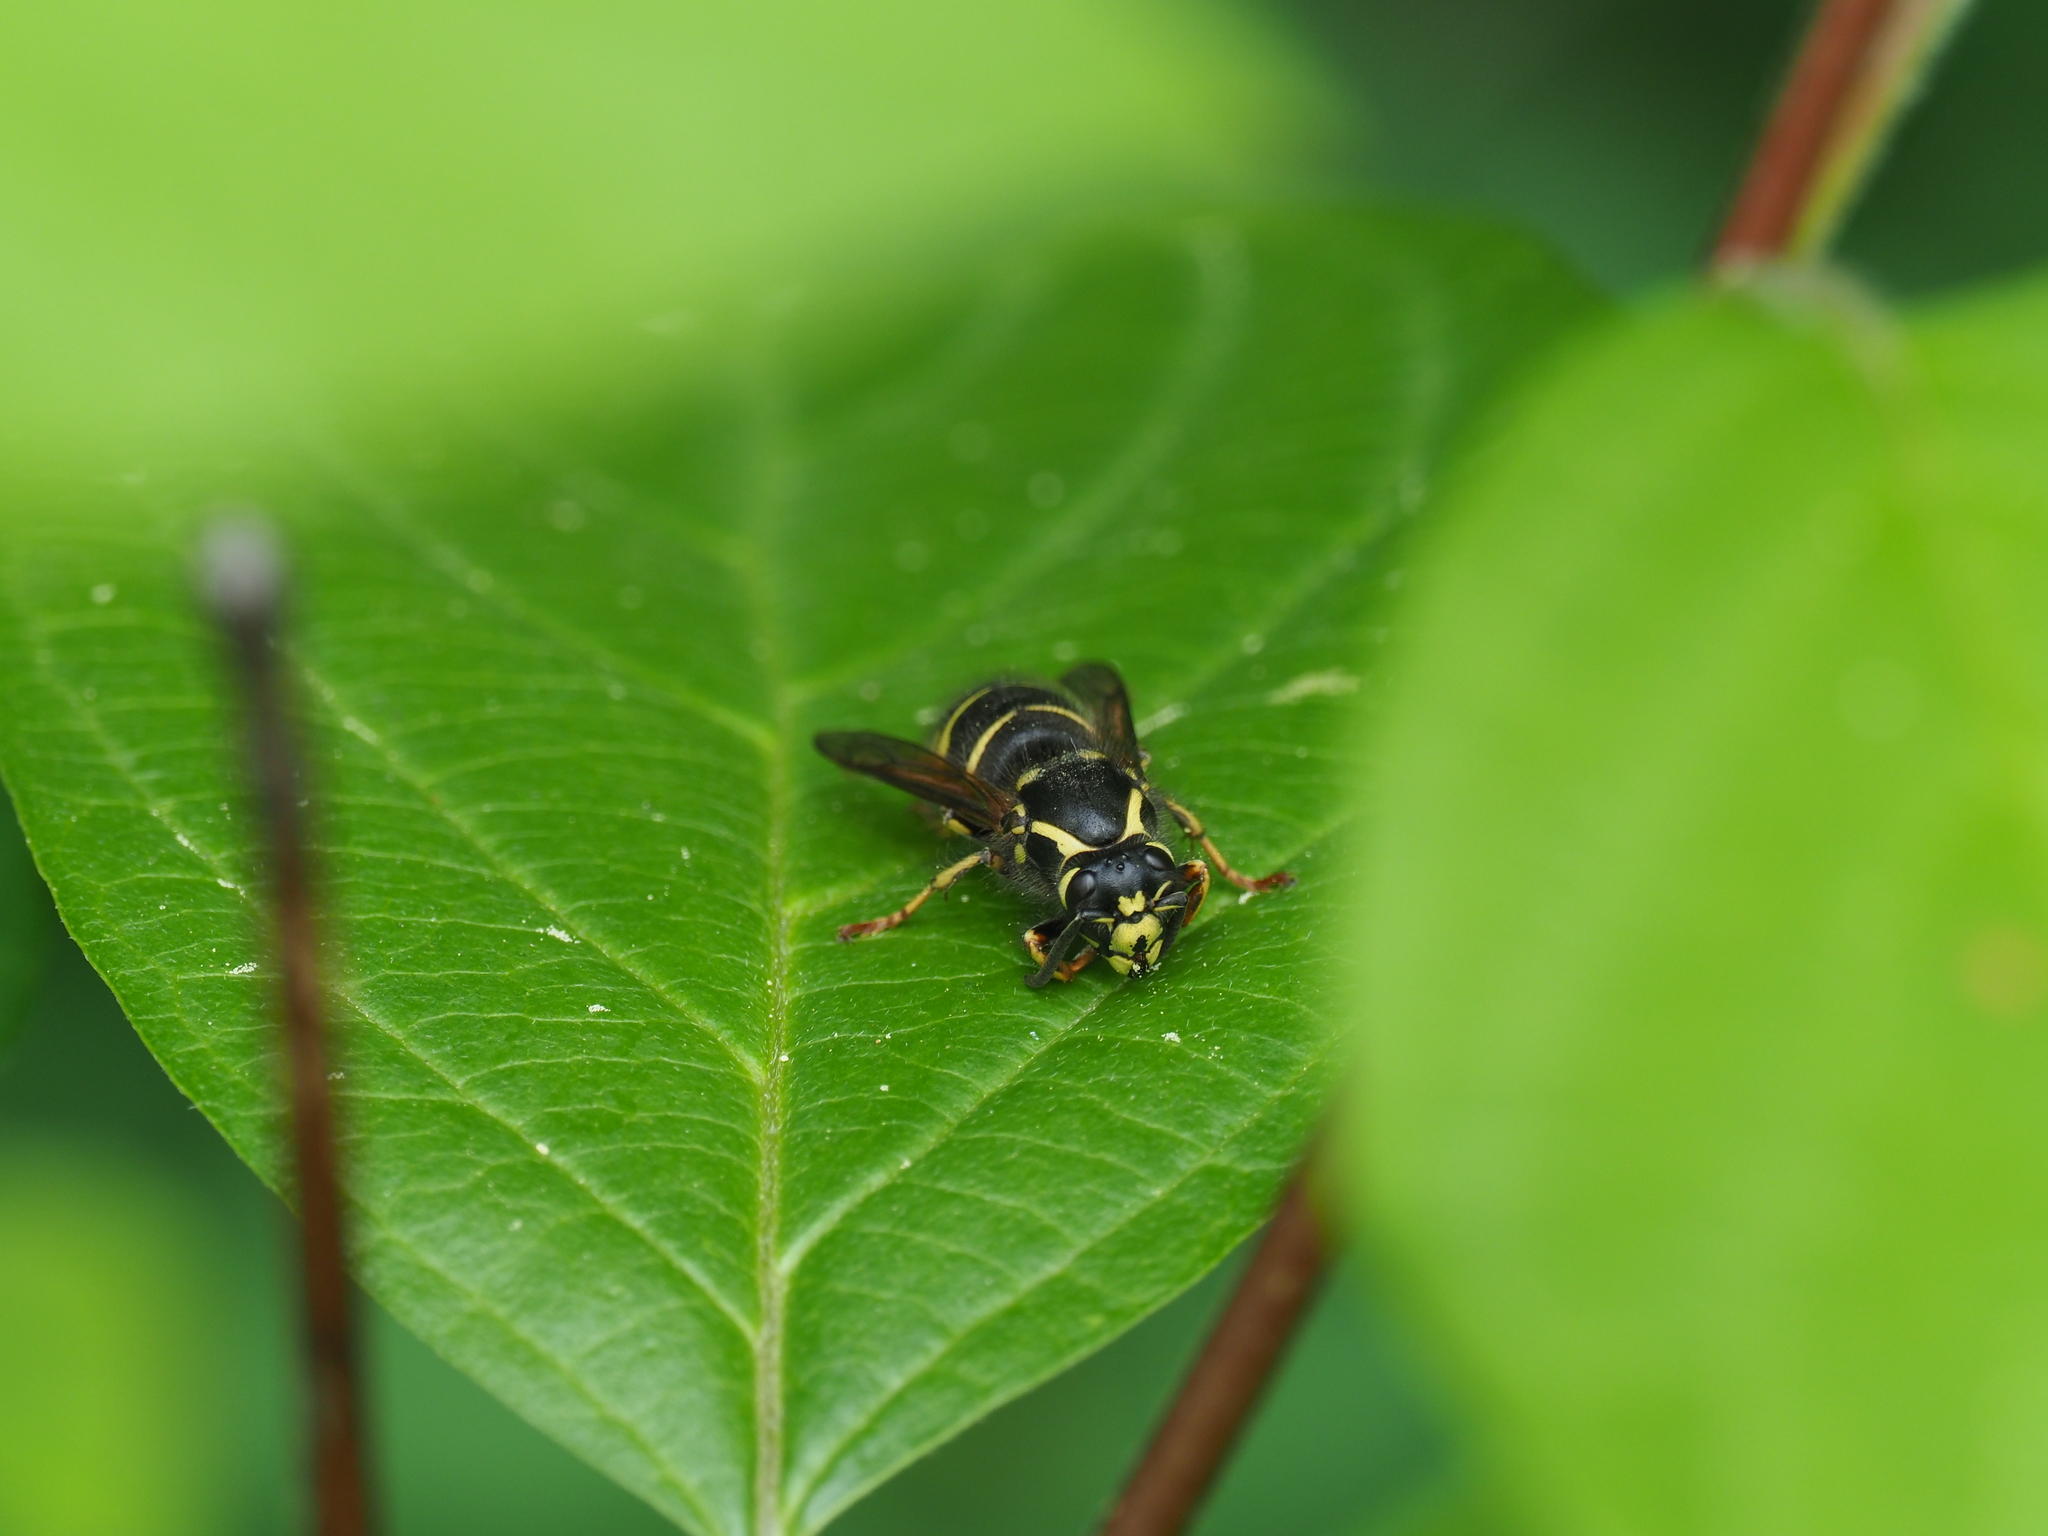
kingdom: Animalia
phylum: Arthropoda
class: Insecta
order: Hymenoptera
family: Vespidae
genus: Dolichovespula
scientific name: Dolichovespula
